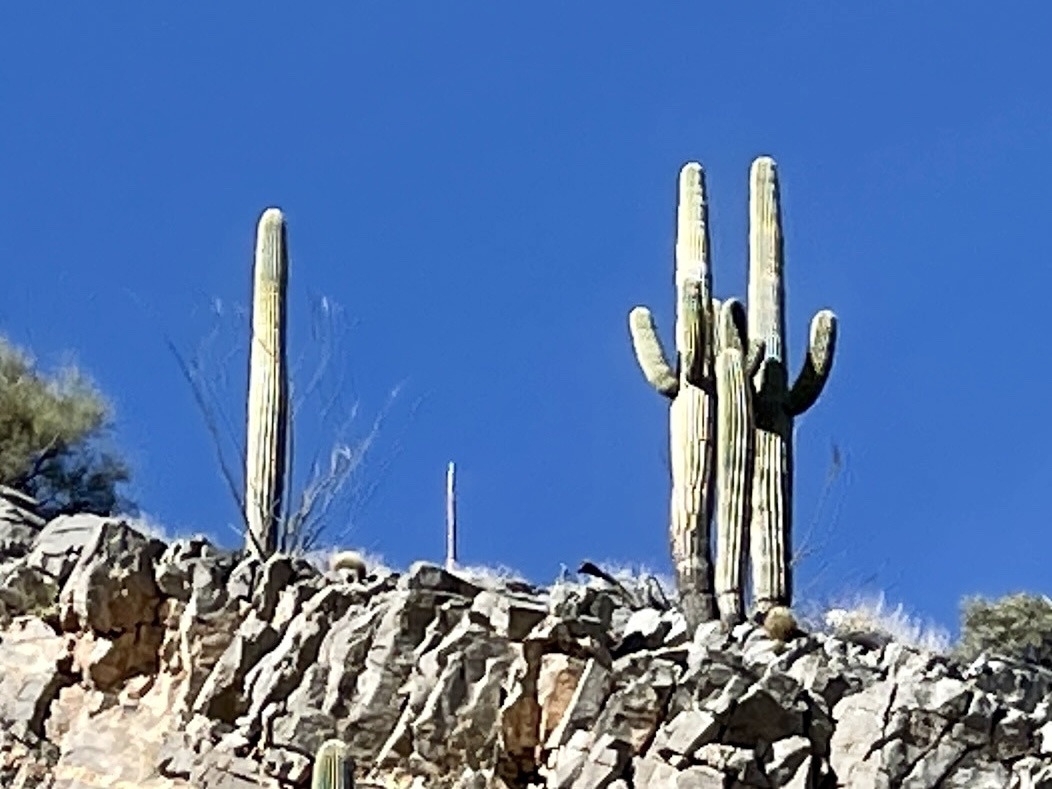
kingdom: Plantae
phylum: Tracheophyta
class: Magnoliopsida
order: Caryophyllales
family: Cactaceae
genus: Carnegiea
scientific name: Carnegiea gigantea
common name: Saguaro
